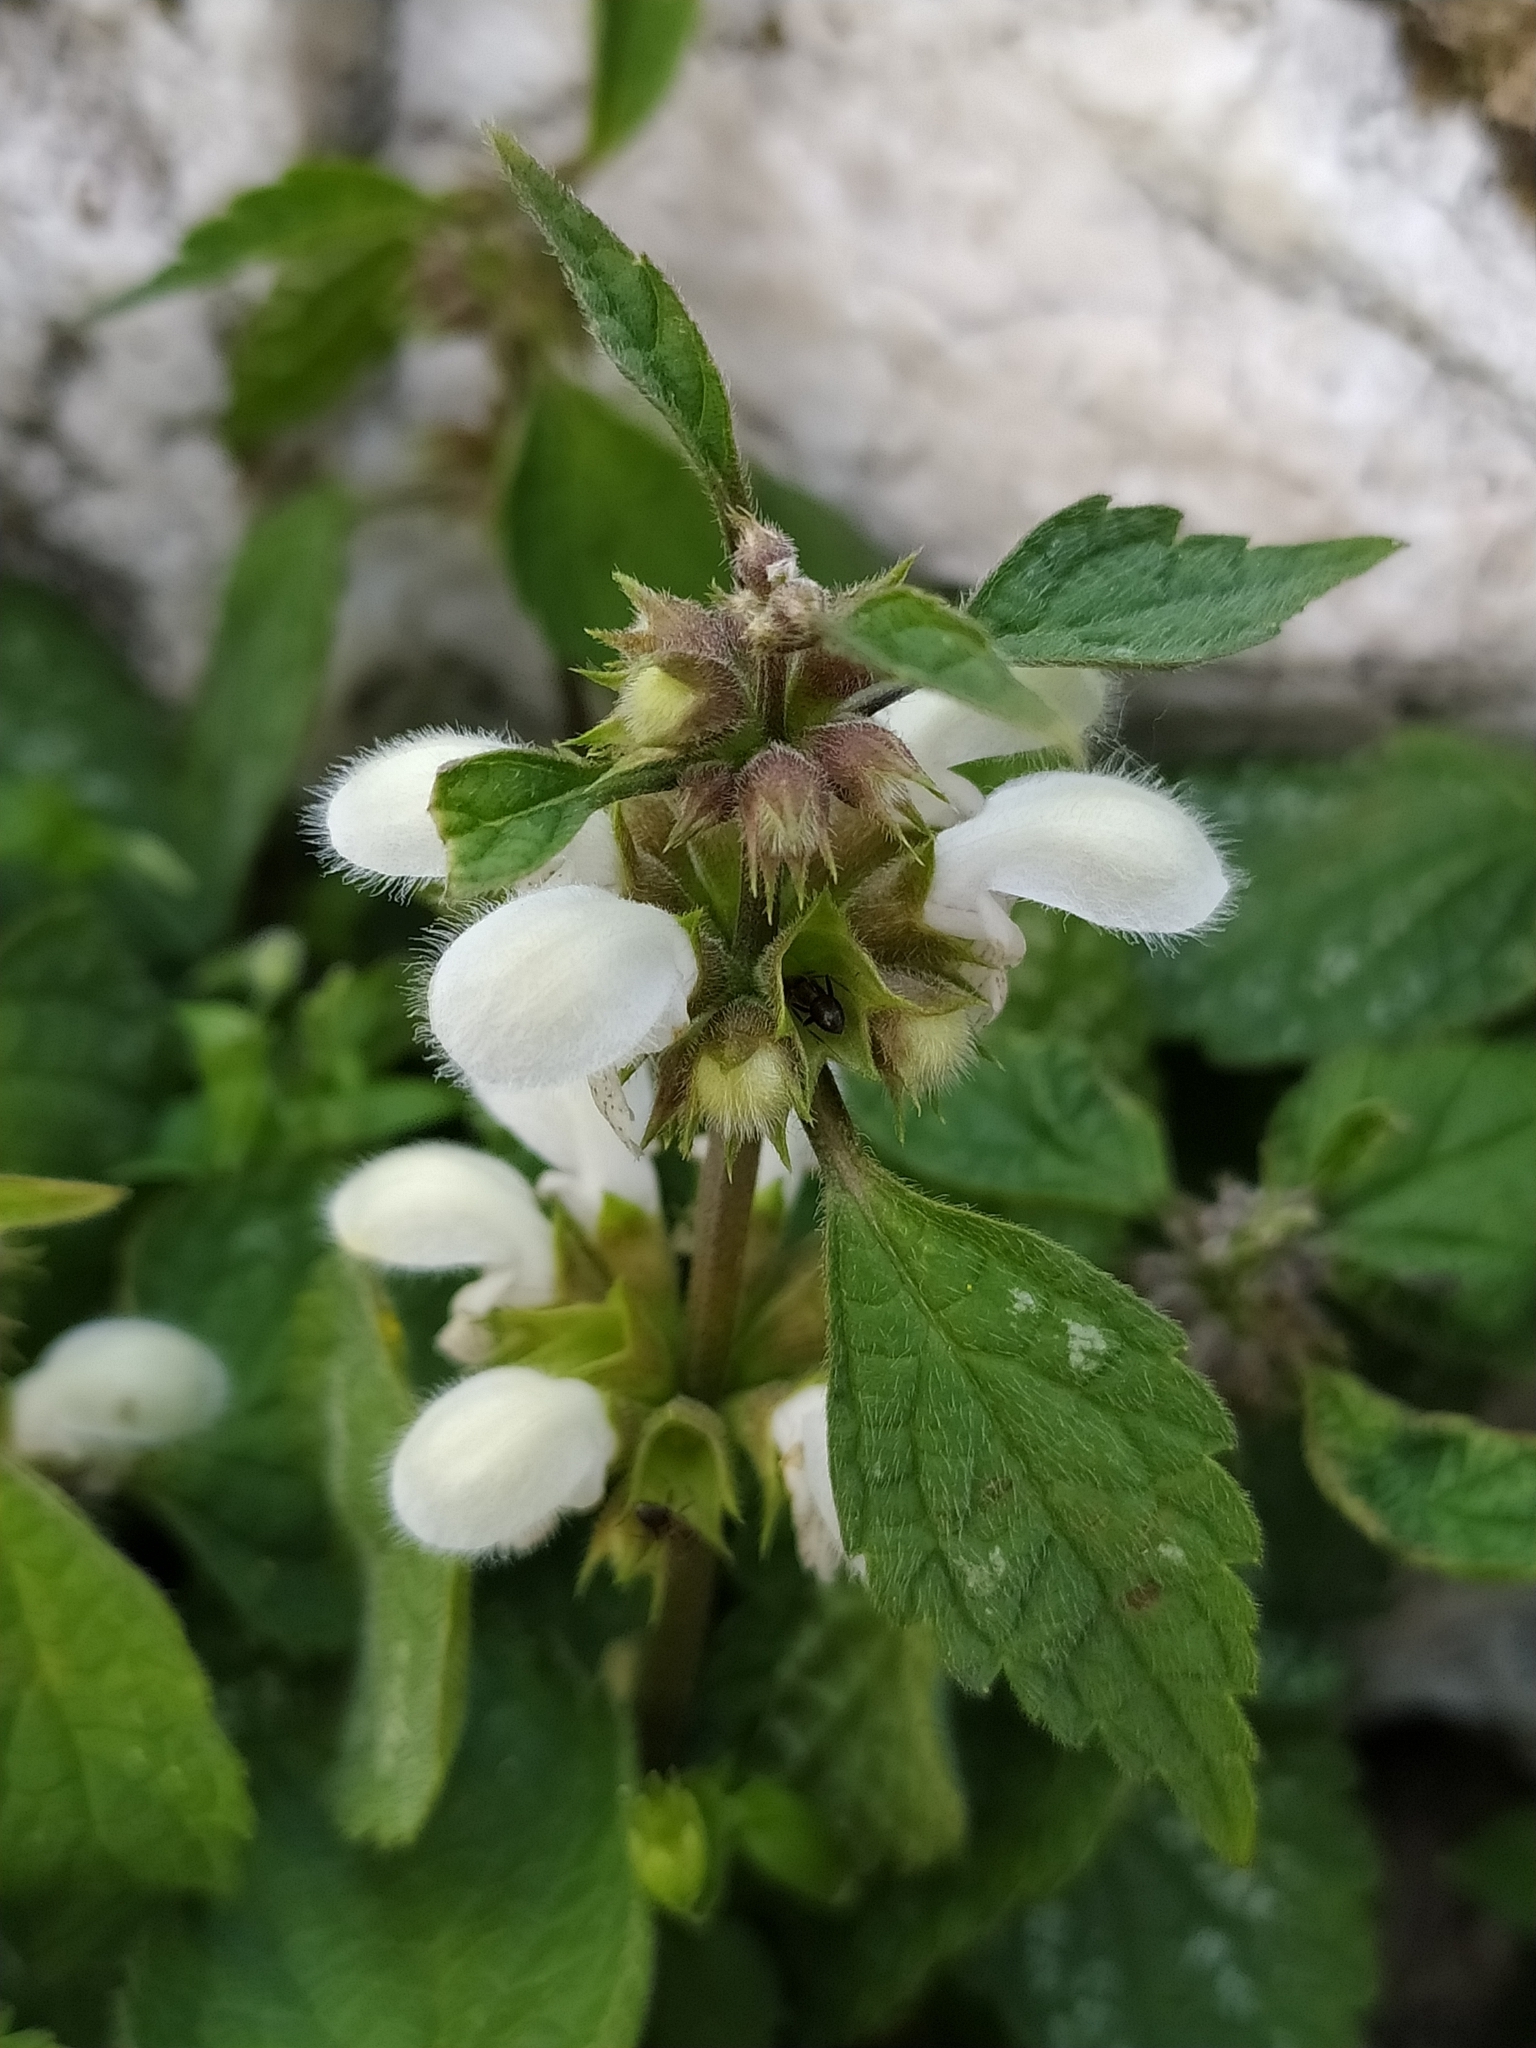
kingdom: Plantae
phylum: Tracheophyta
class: Magnoliopsida
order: Lamiales
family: Lamiaceae
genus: Lamium
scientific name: Lamium flexuosum
